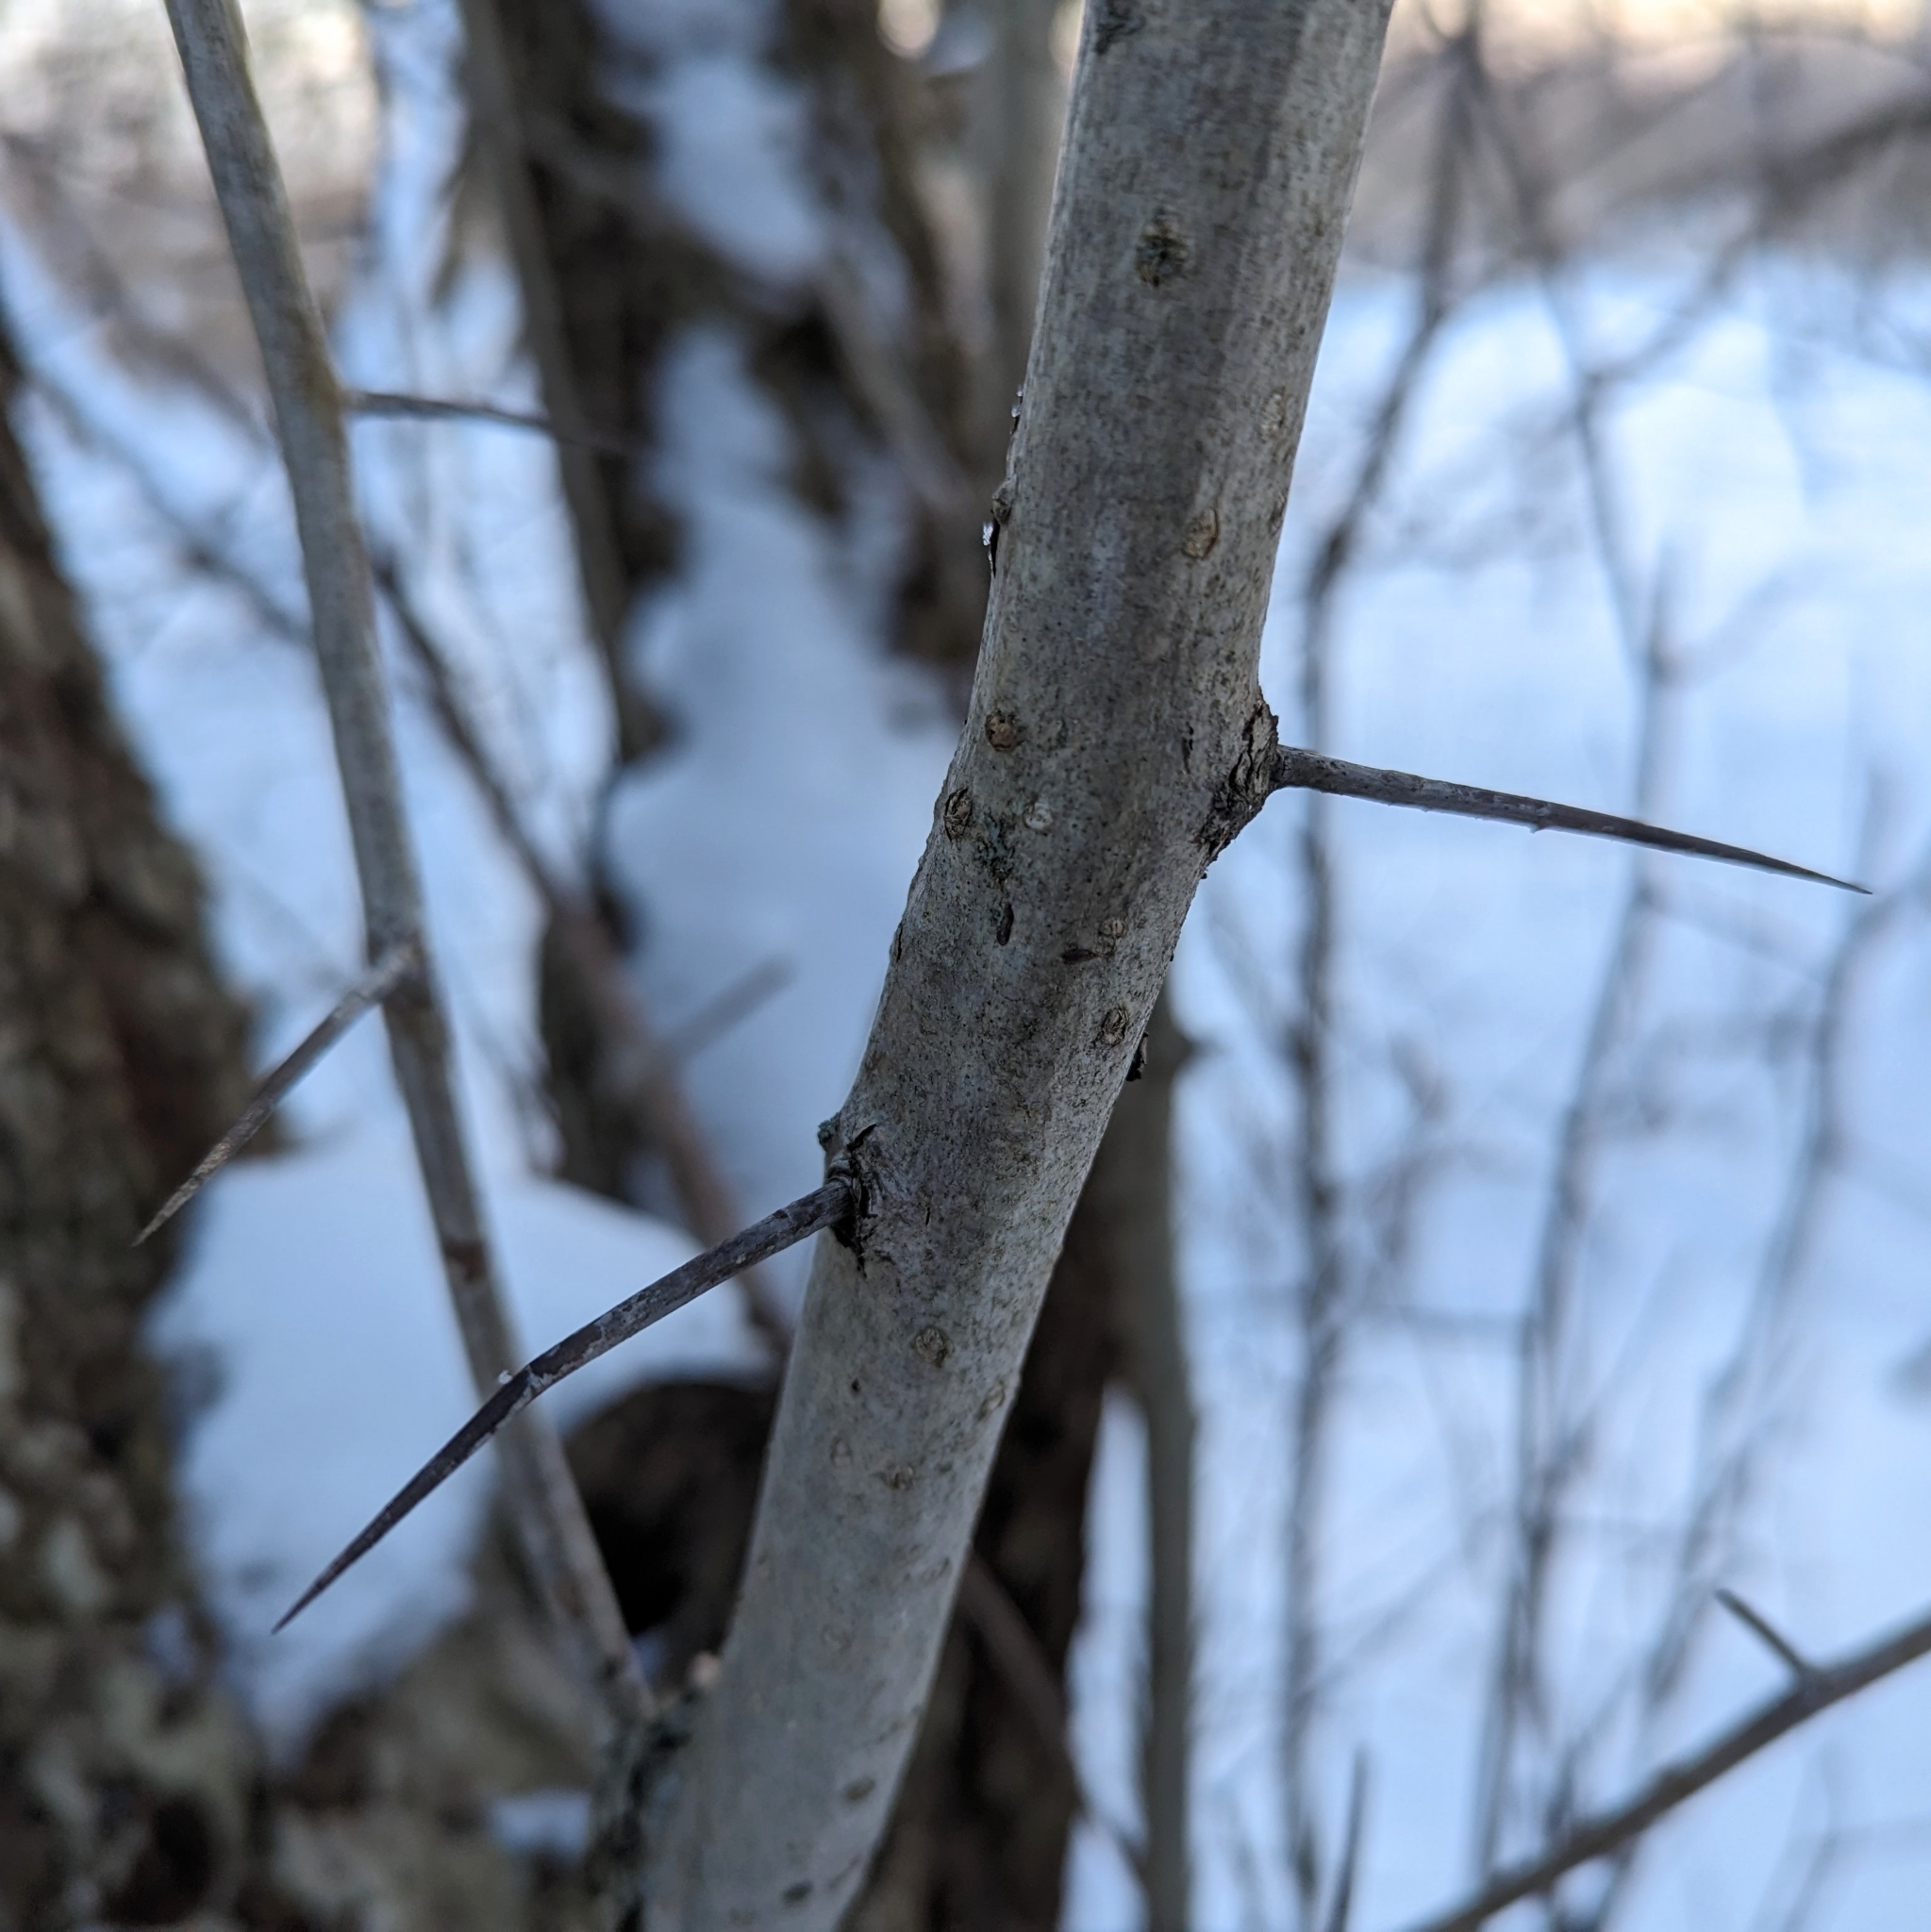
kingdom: Plantae
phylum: Tracheophyta
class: Magnoliopsida
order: Rosales
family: Rosaceae
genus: Crataegus
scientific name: Crataegus
